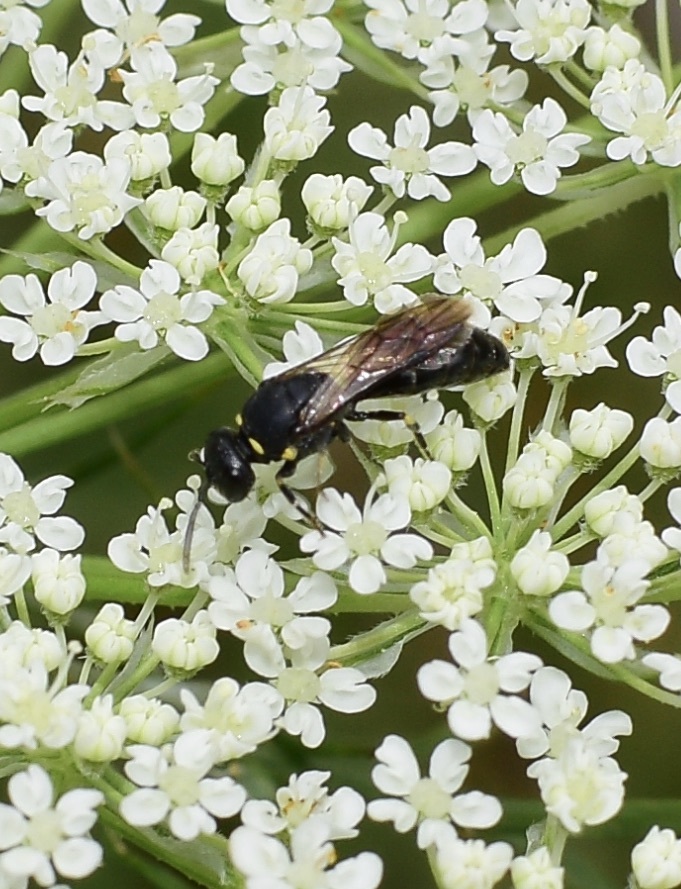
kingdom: Animalia
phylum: Arthropoda
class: Insecta
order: Hymenoptera
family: Colletidae
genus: Hylaeus
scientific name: Hylaeus modestus
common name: Yellow-faced bee
